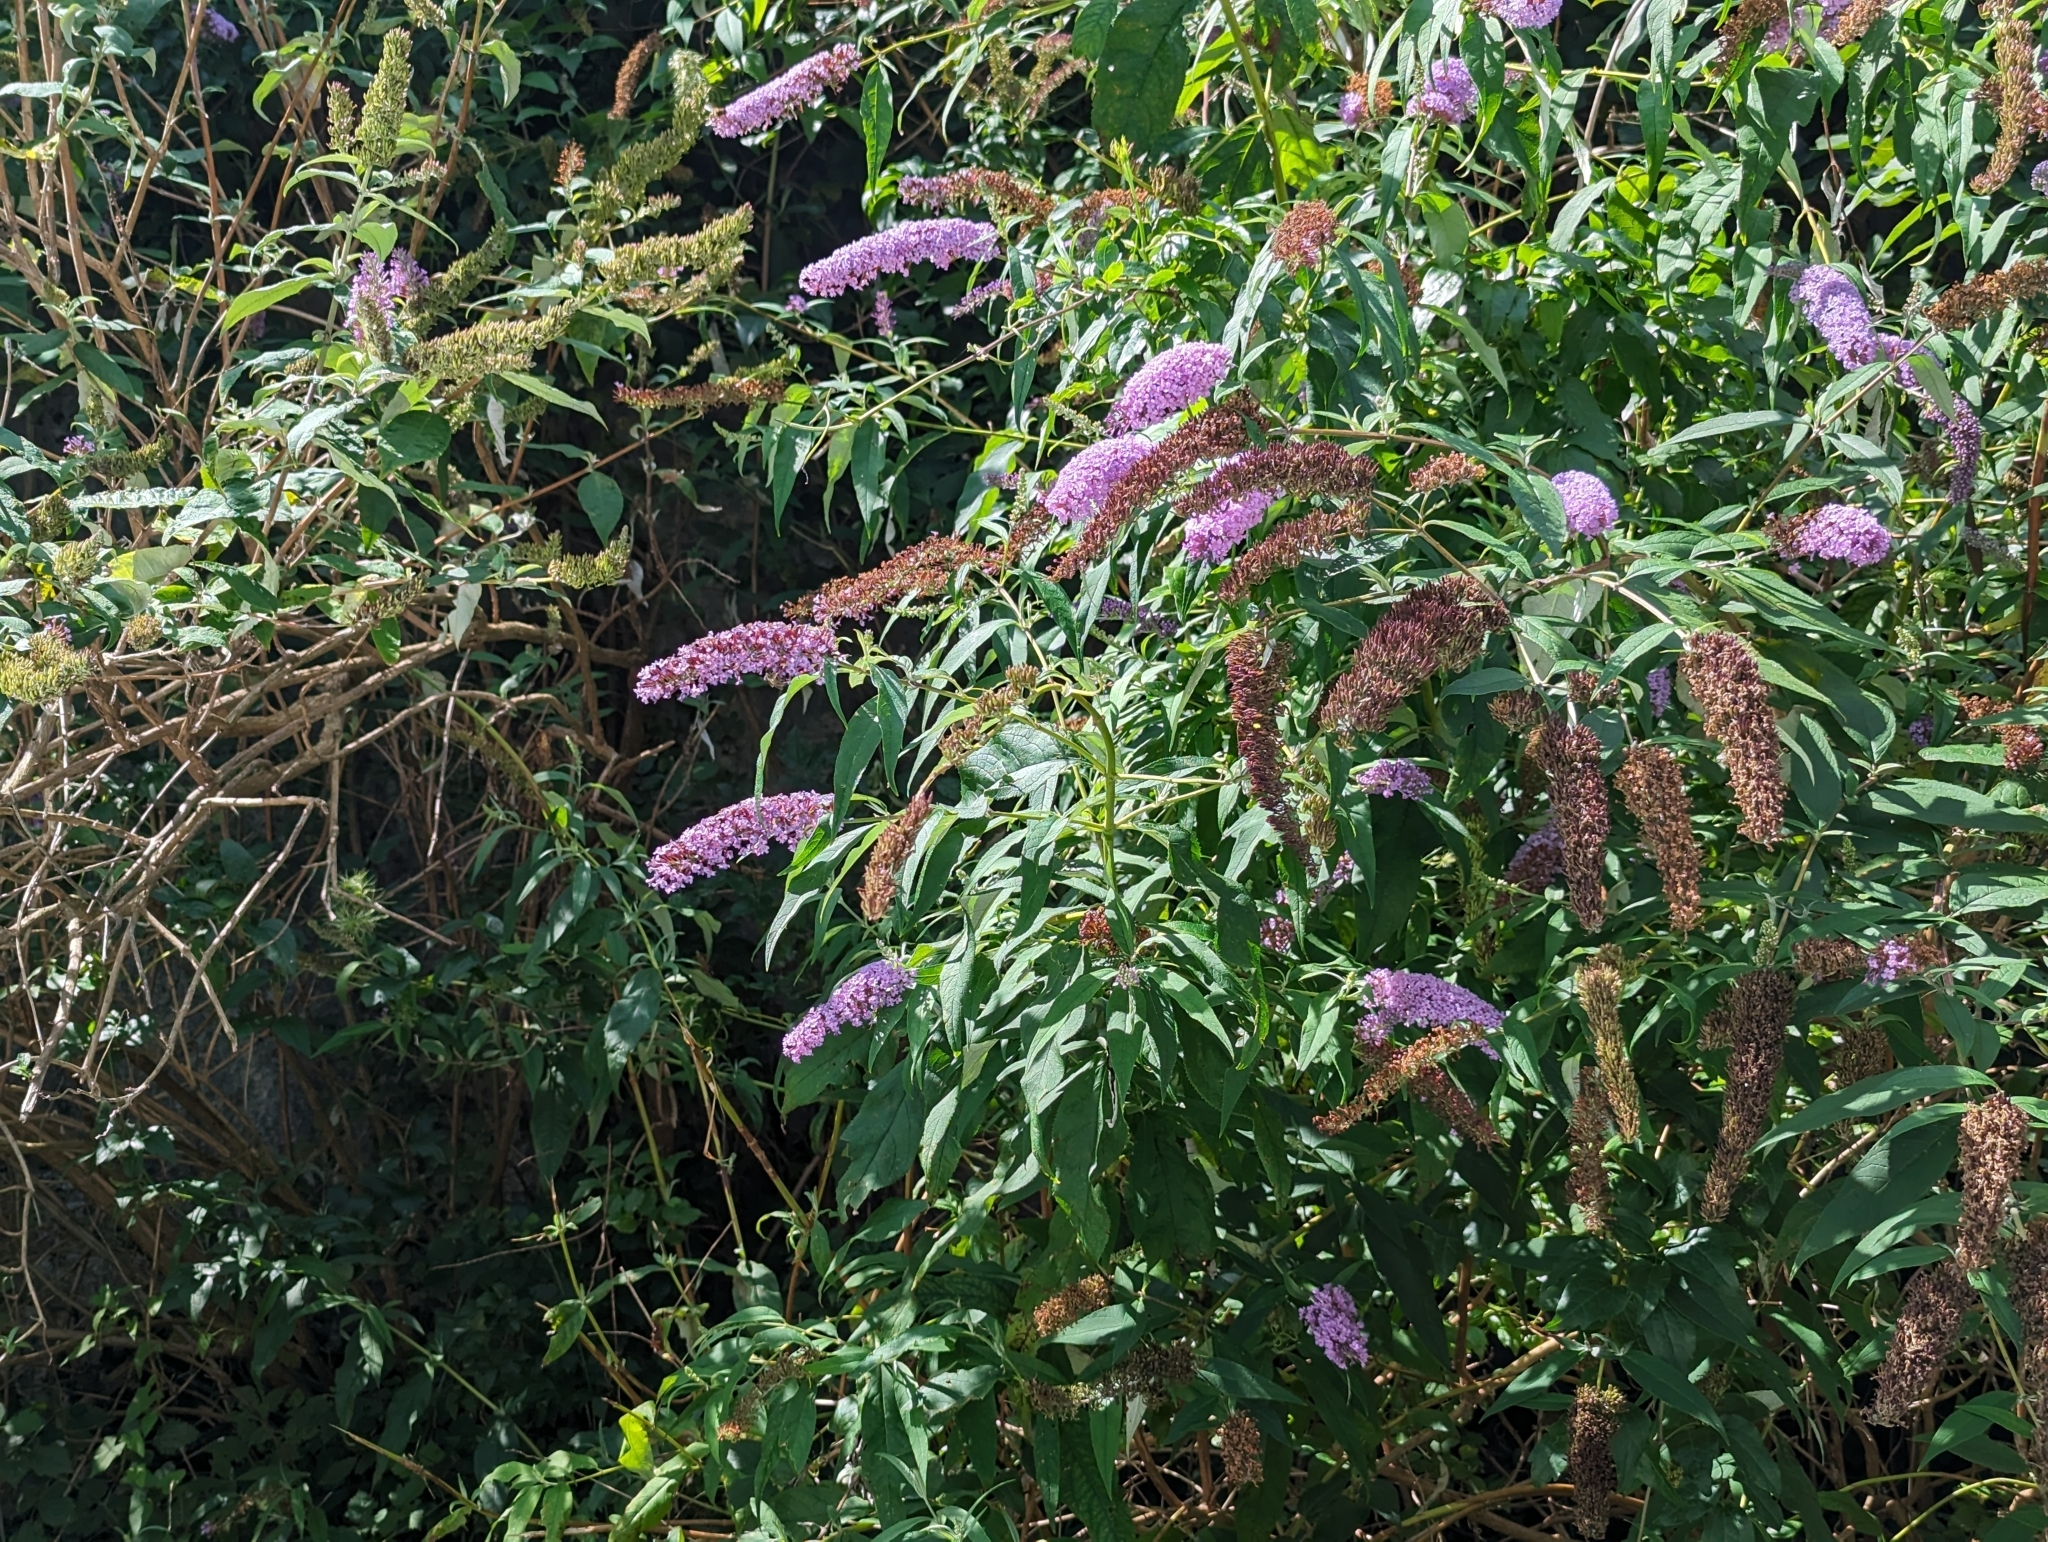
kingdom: Plantae
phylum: Tracheophyta
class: Magnoliopsida
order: Lamiales
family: Scrophulariaceae
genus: Buddleja
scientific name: Buddleja davidii
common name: Butterfly-bush
